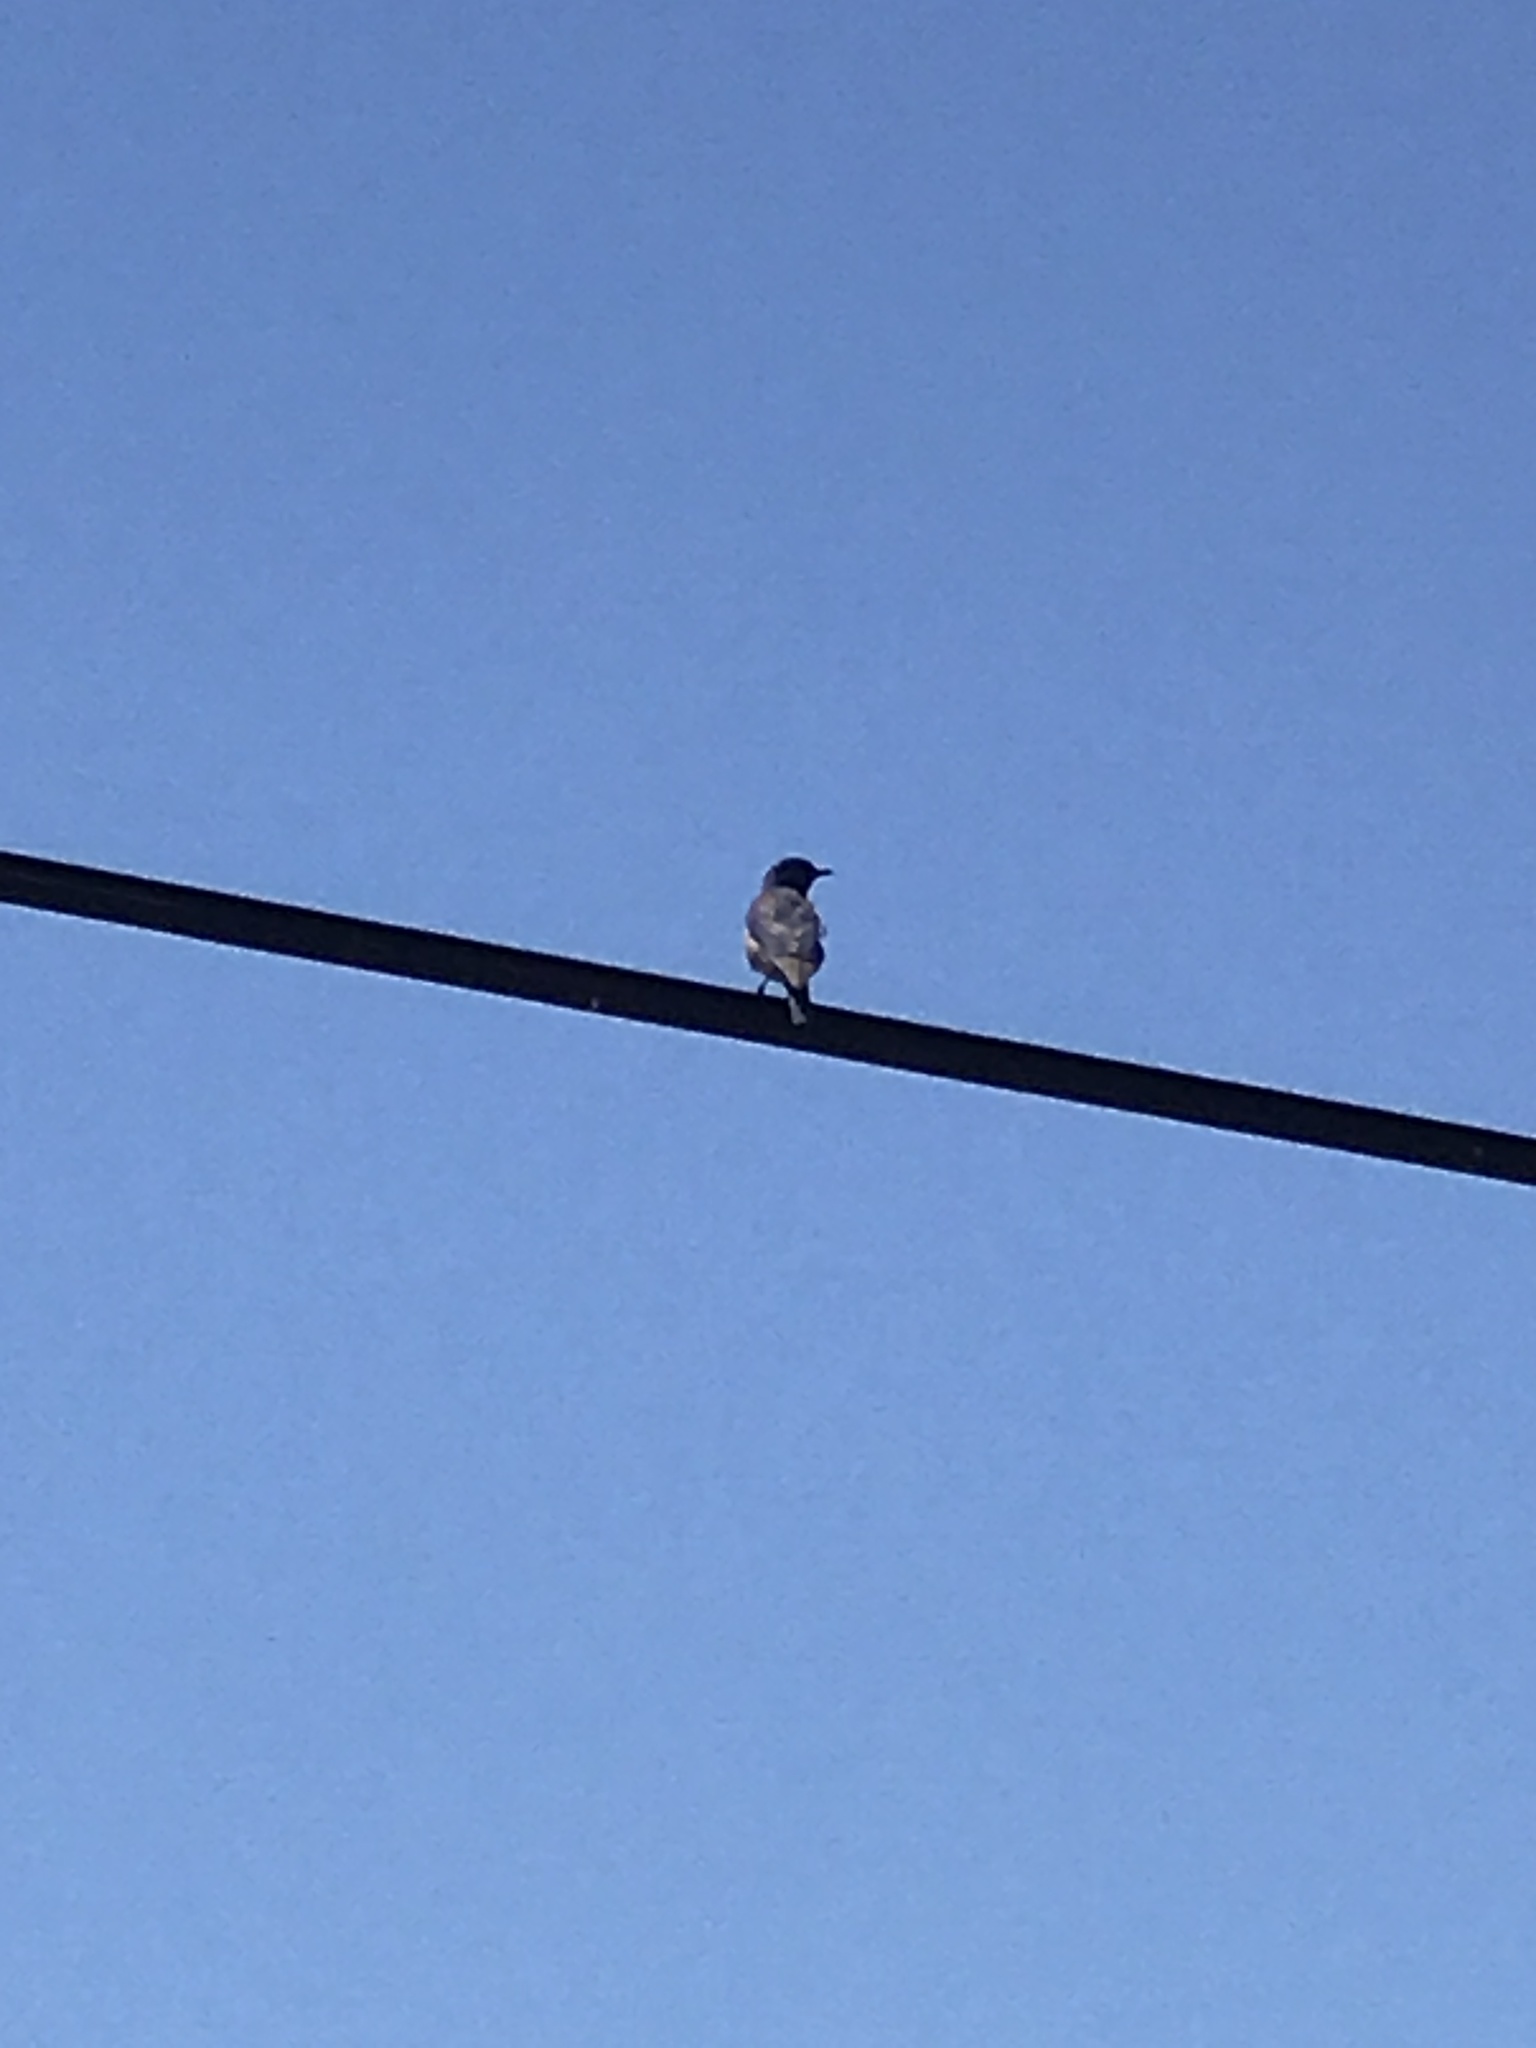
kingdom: Animalia
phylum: Chordata
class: Aves
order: Passeriformes
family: Turdidae
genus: Sialia
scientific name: Sialia mexicana
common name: Western bluebird
